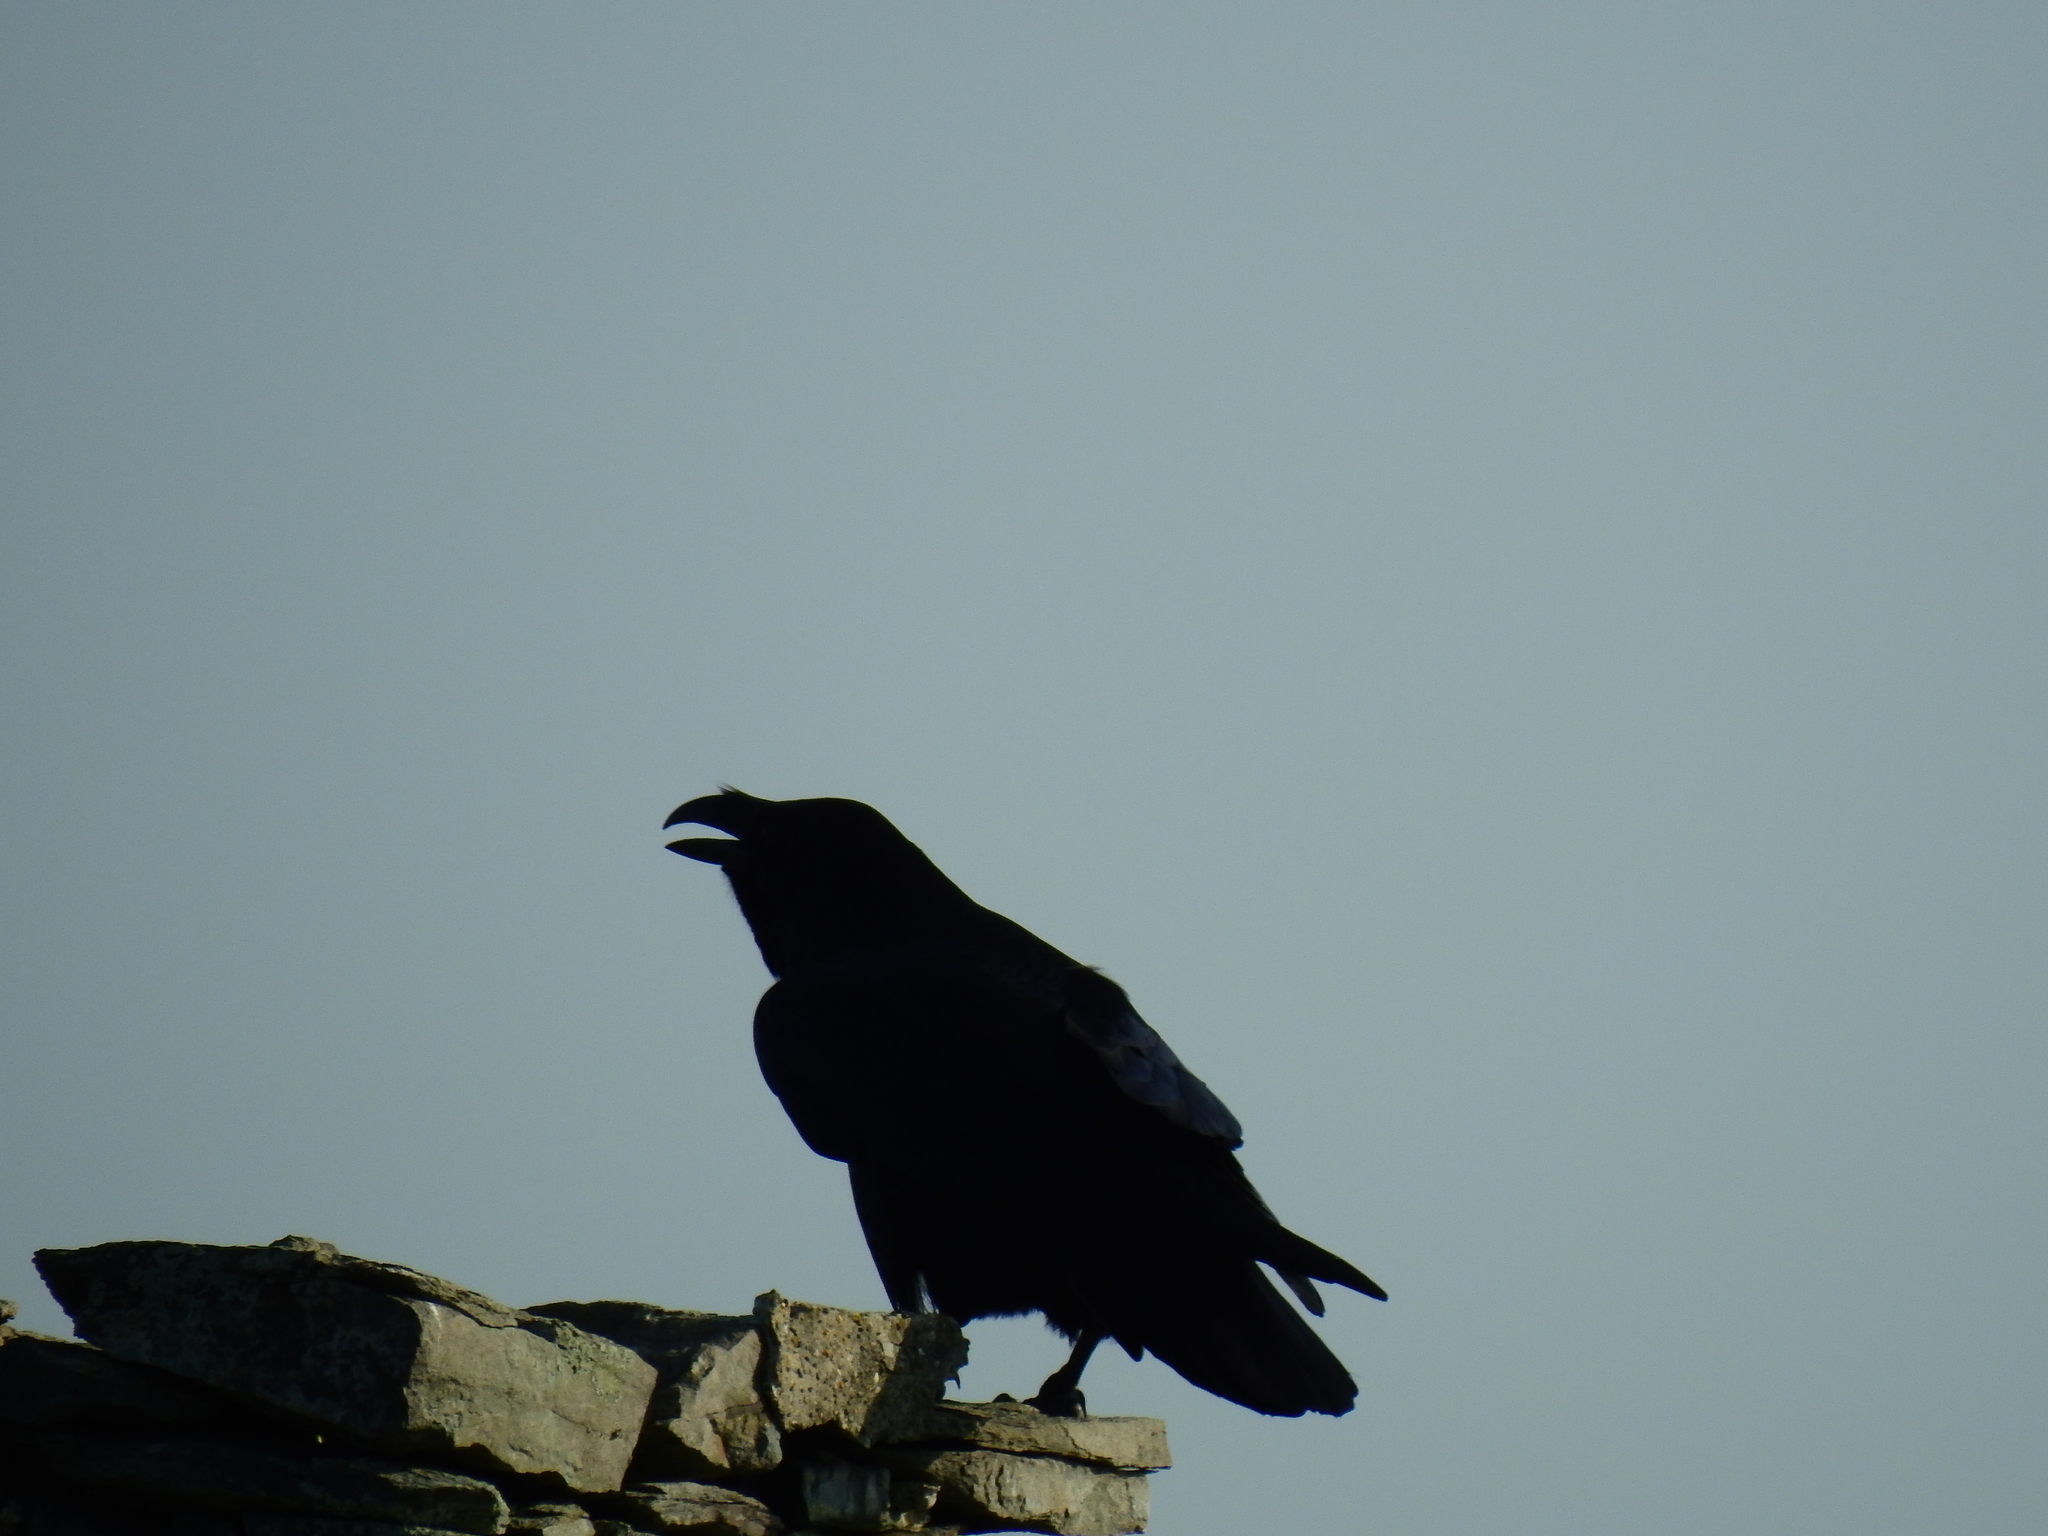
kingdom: Animalia
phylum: Chordata
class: Aves
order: Passeriformes
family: Corvidae
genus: Corvus
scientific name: Corvus corax
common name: Common raven
